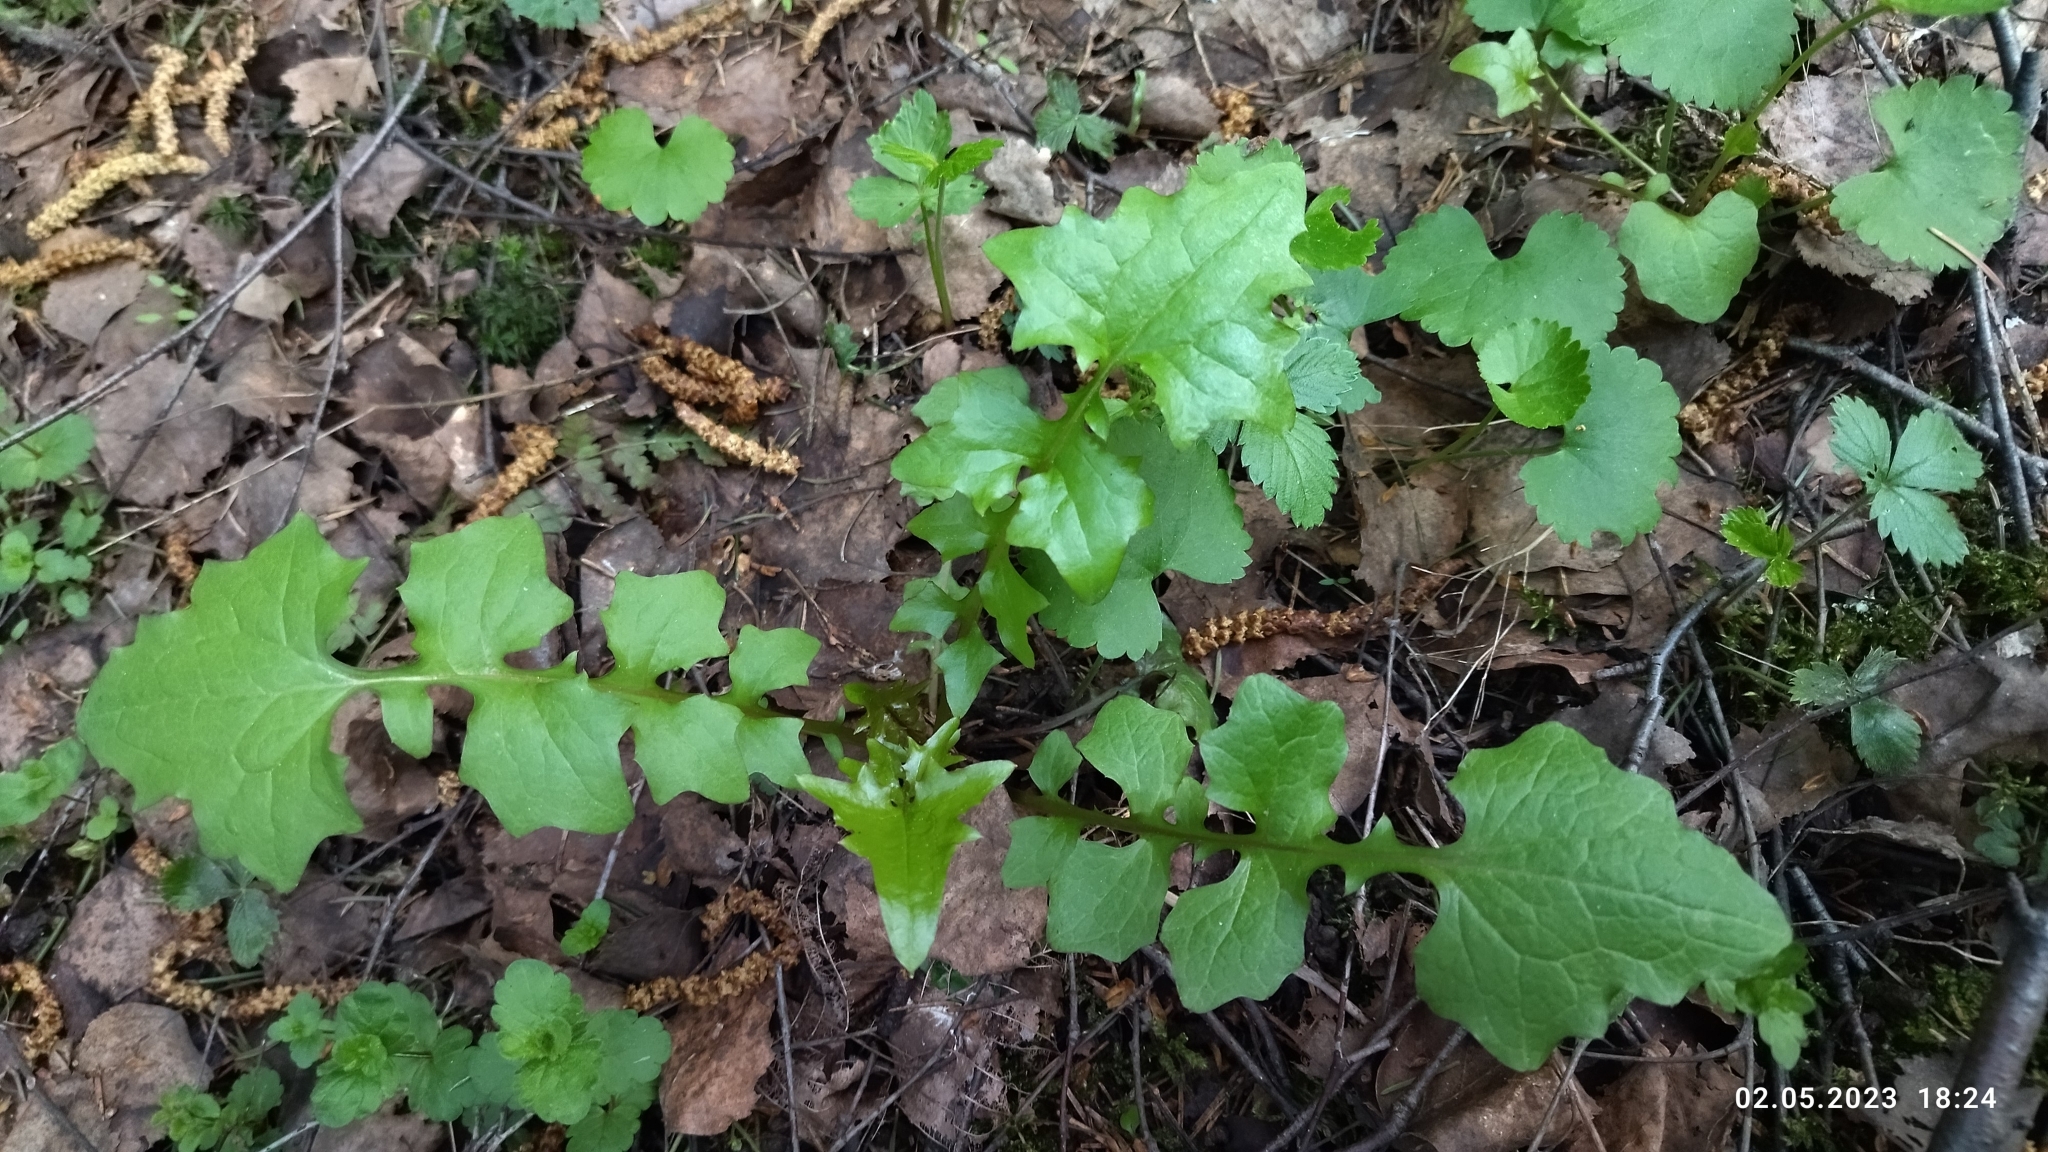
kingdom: Plantae
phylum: Tracheophyta
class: Magnoliopsida
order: Asterales
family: Asteraceae
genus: Mycelis
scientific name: Mycelis muralis
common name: Wall lettuce
